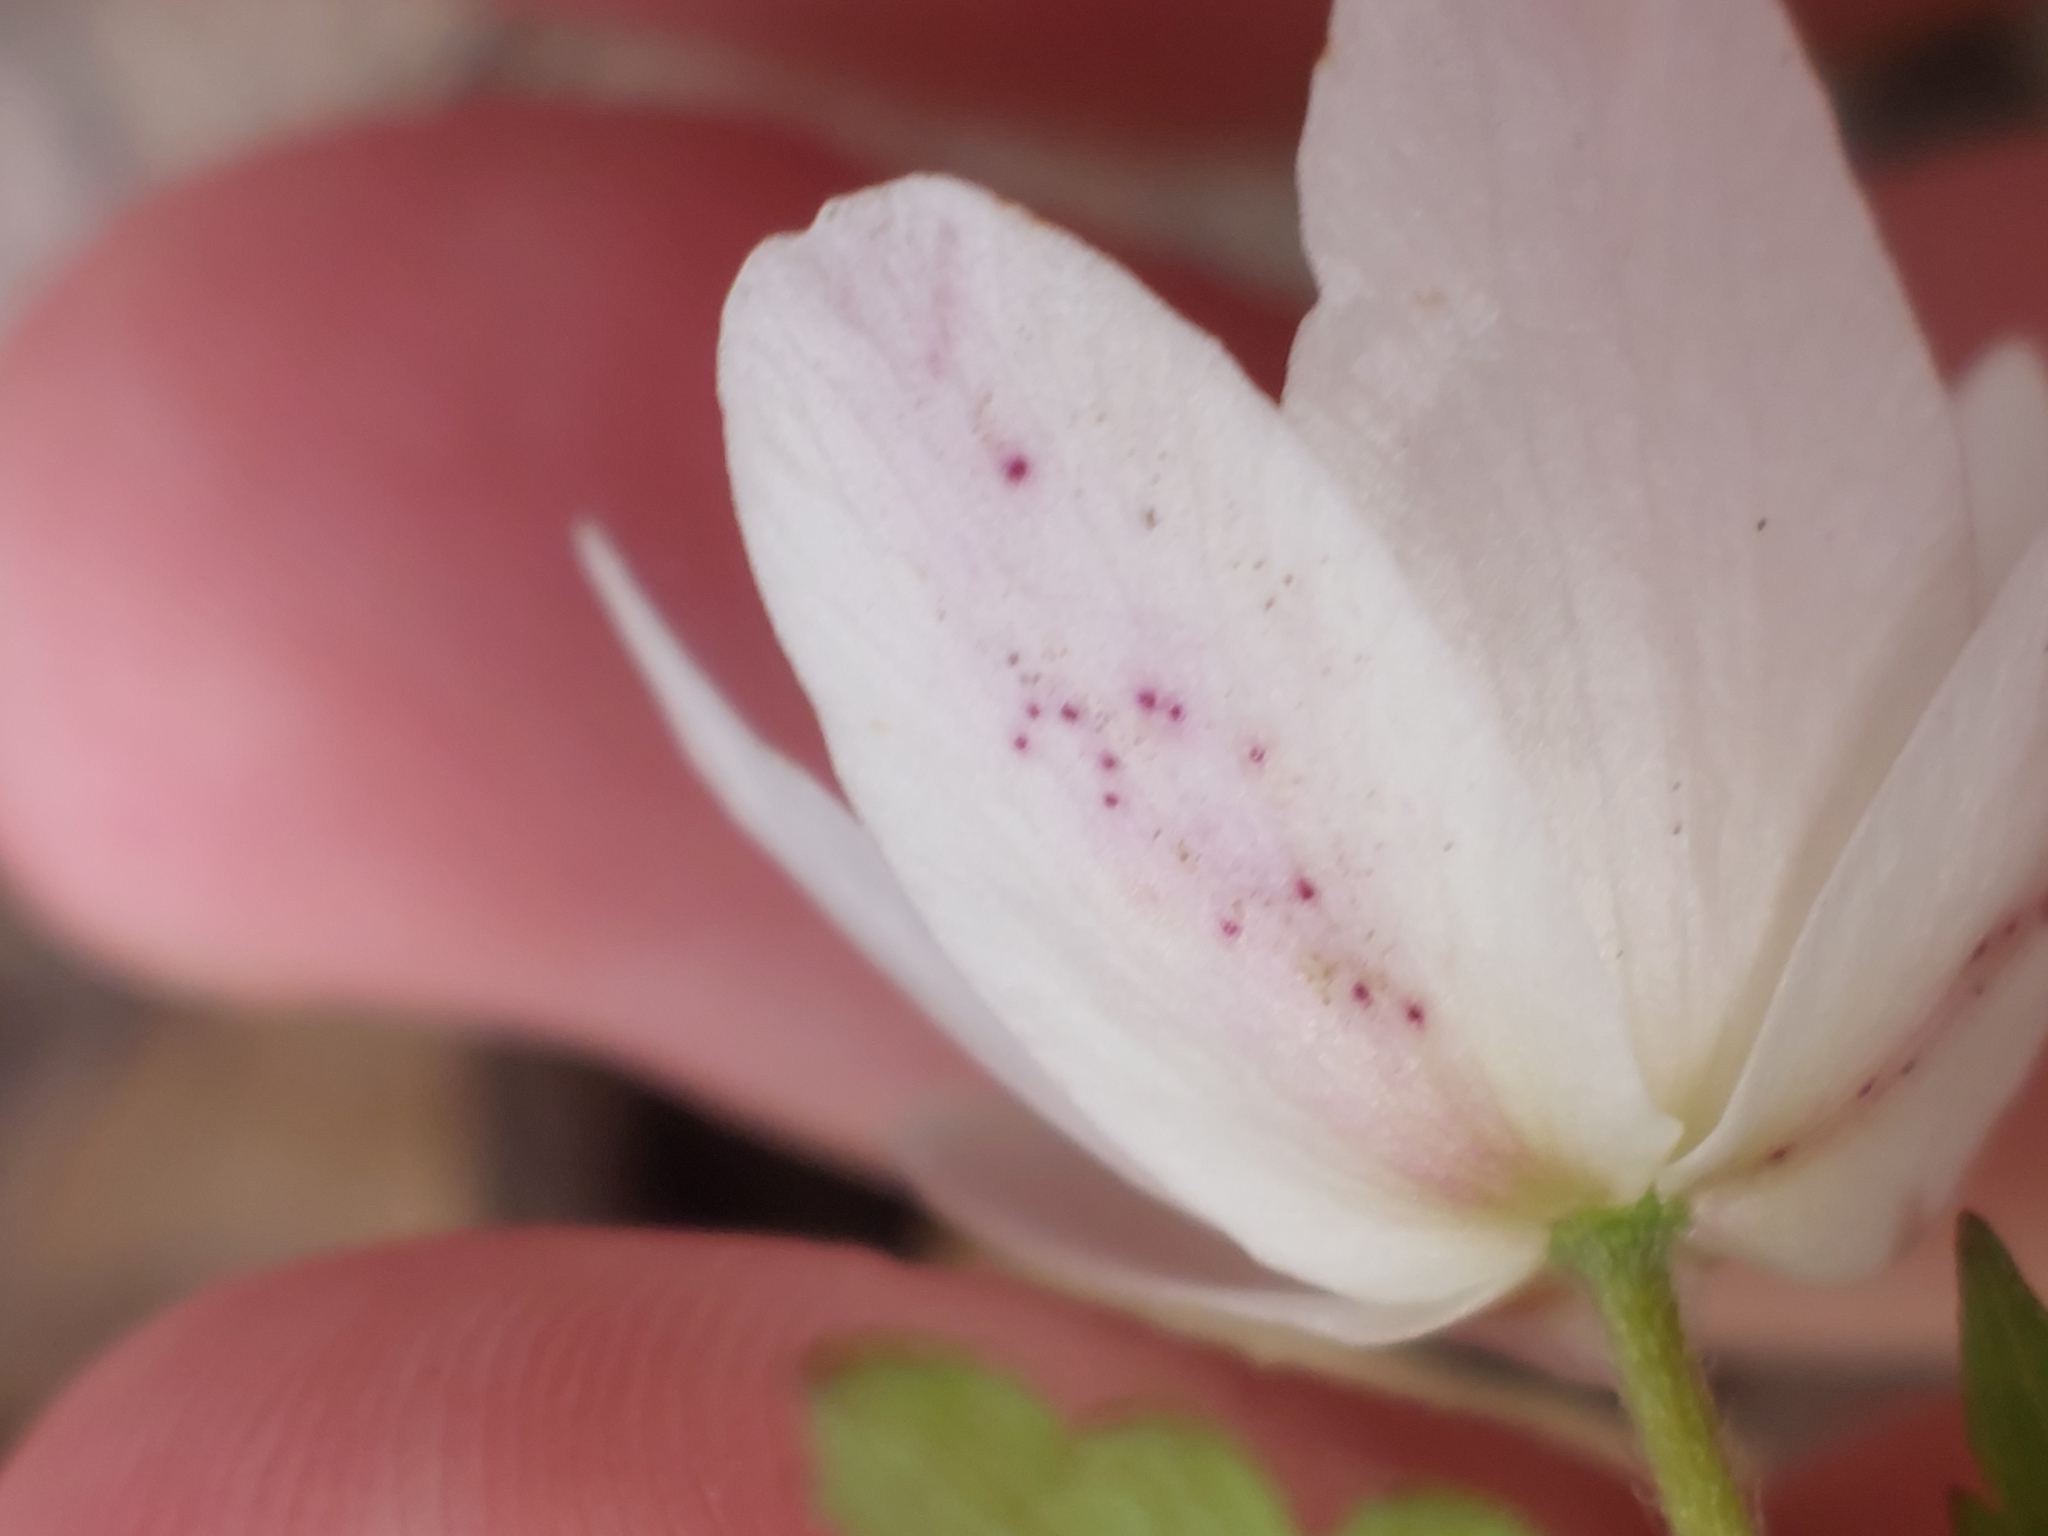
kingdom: Fungi
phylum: Chytridiomycota
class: Chytridiomycetes
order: Chytridiales
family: Synchytriaceae
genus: Synchytrium
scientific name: Synchytrium anemones
